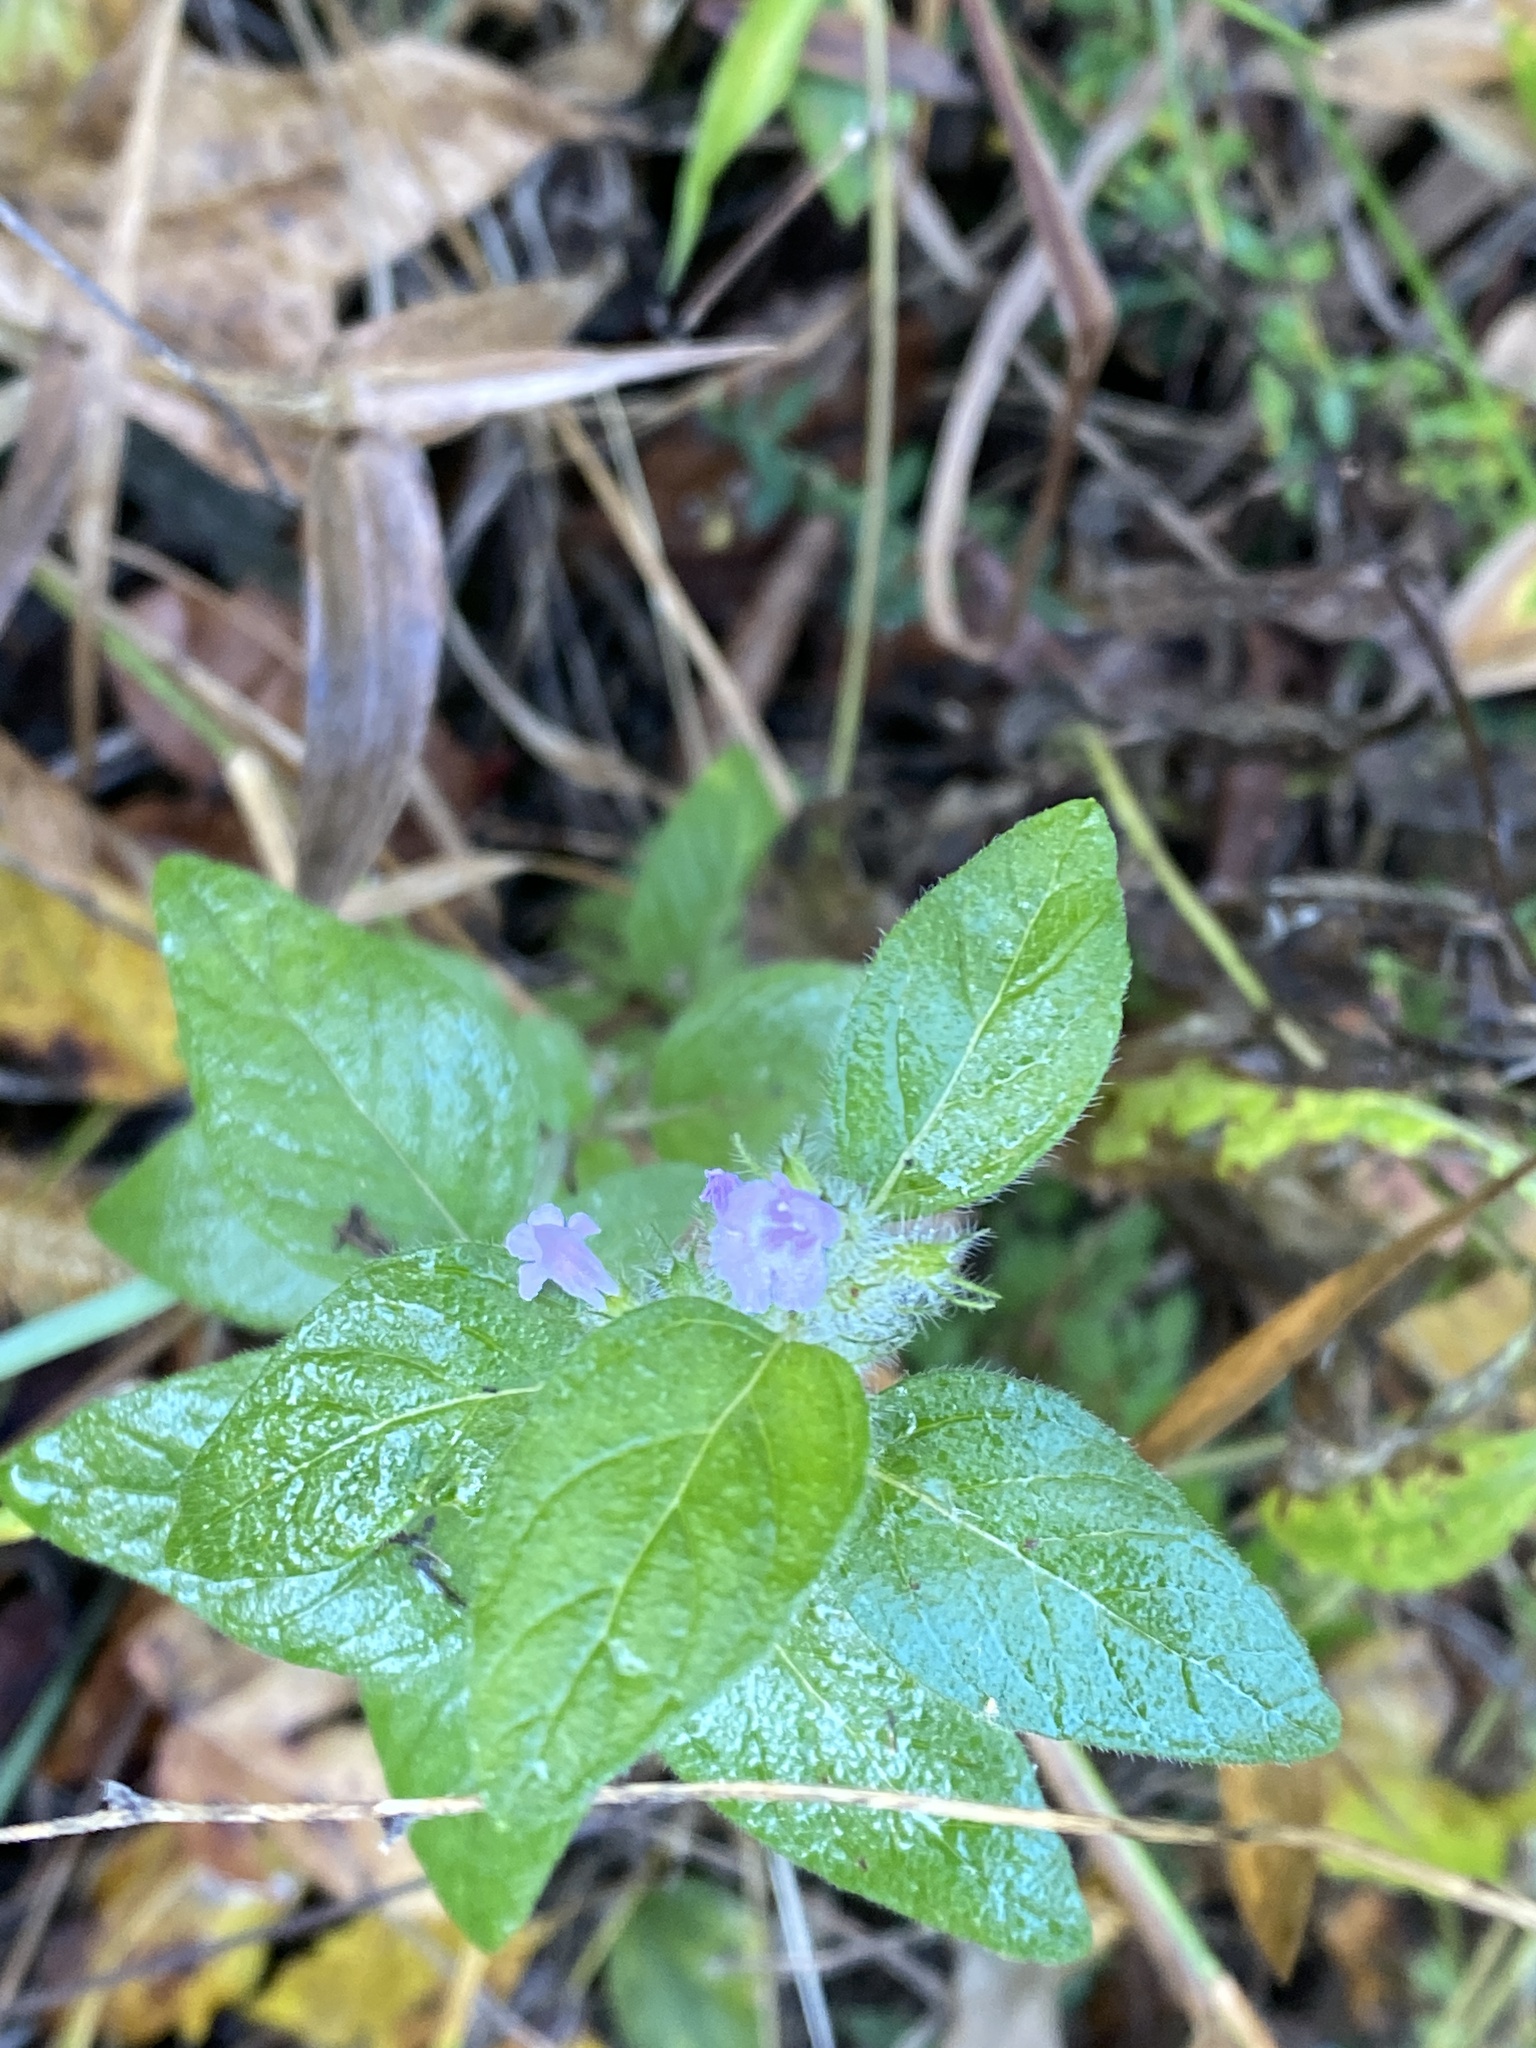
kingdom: Plantae
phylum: Tracheophyta
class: Magnoliopsida
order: Lamiales
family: Lamiaceae
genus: Clinopodium
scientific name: Clinopodium vulgare
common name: Wild basil
